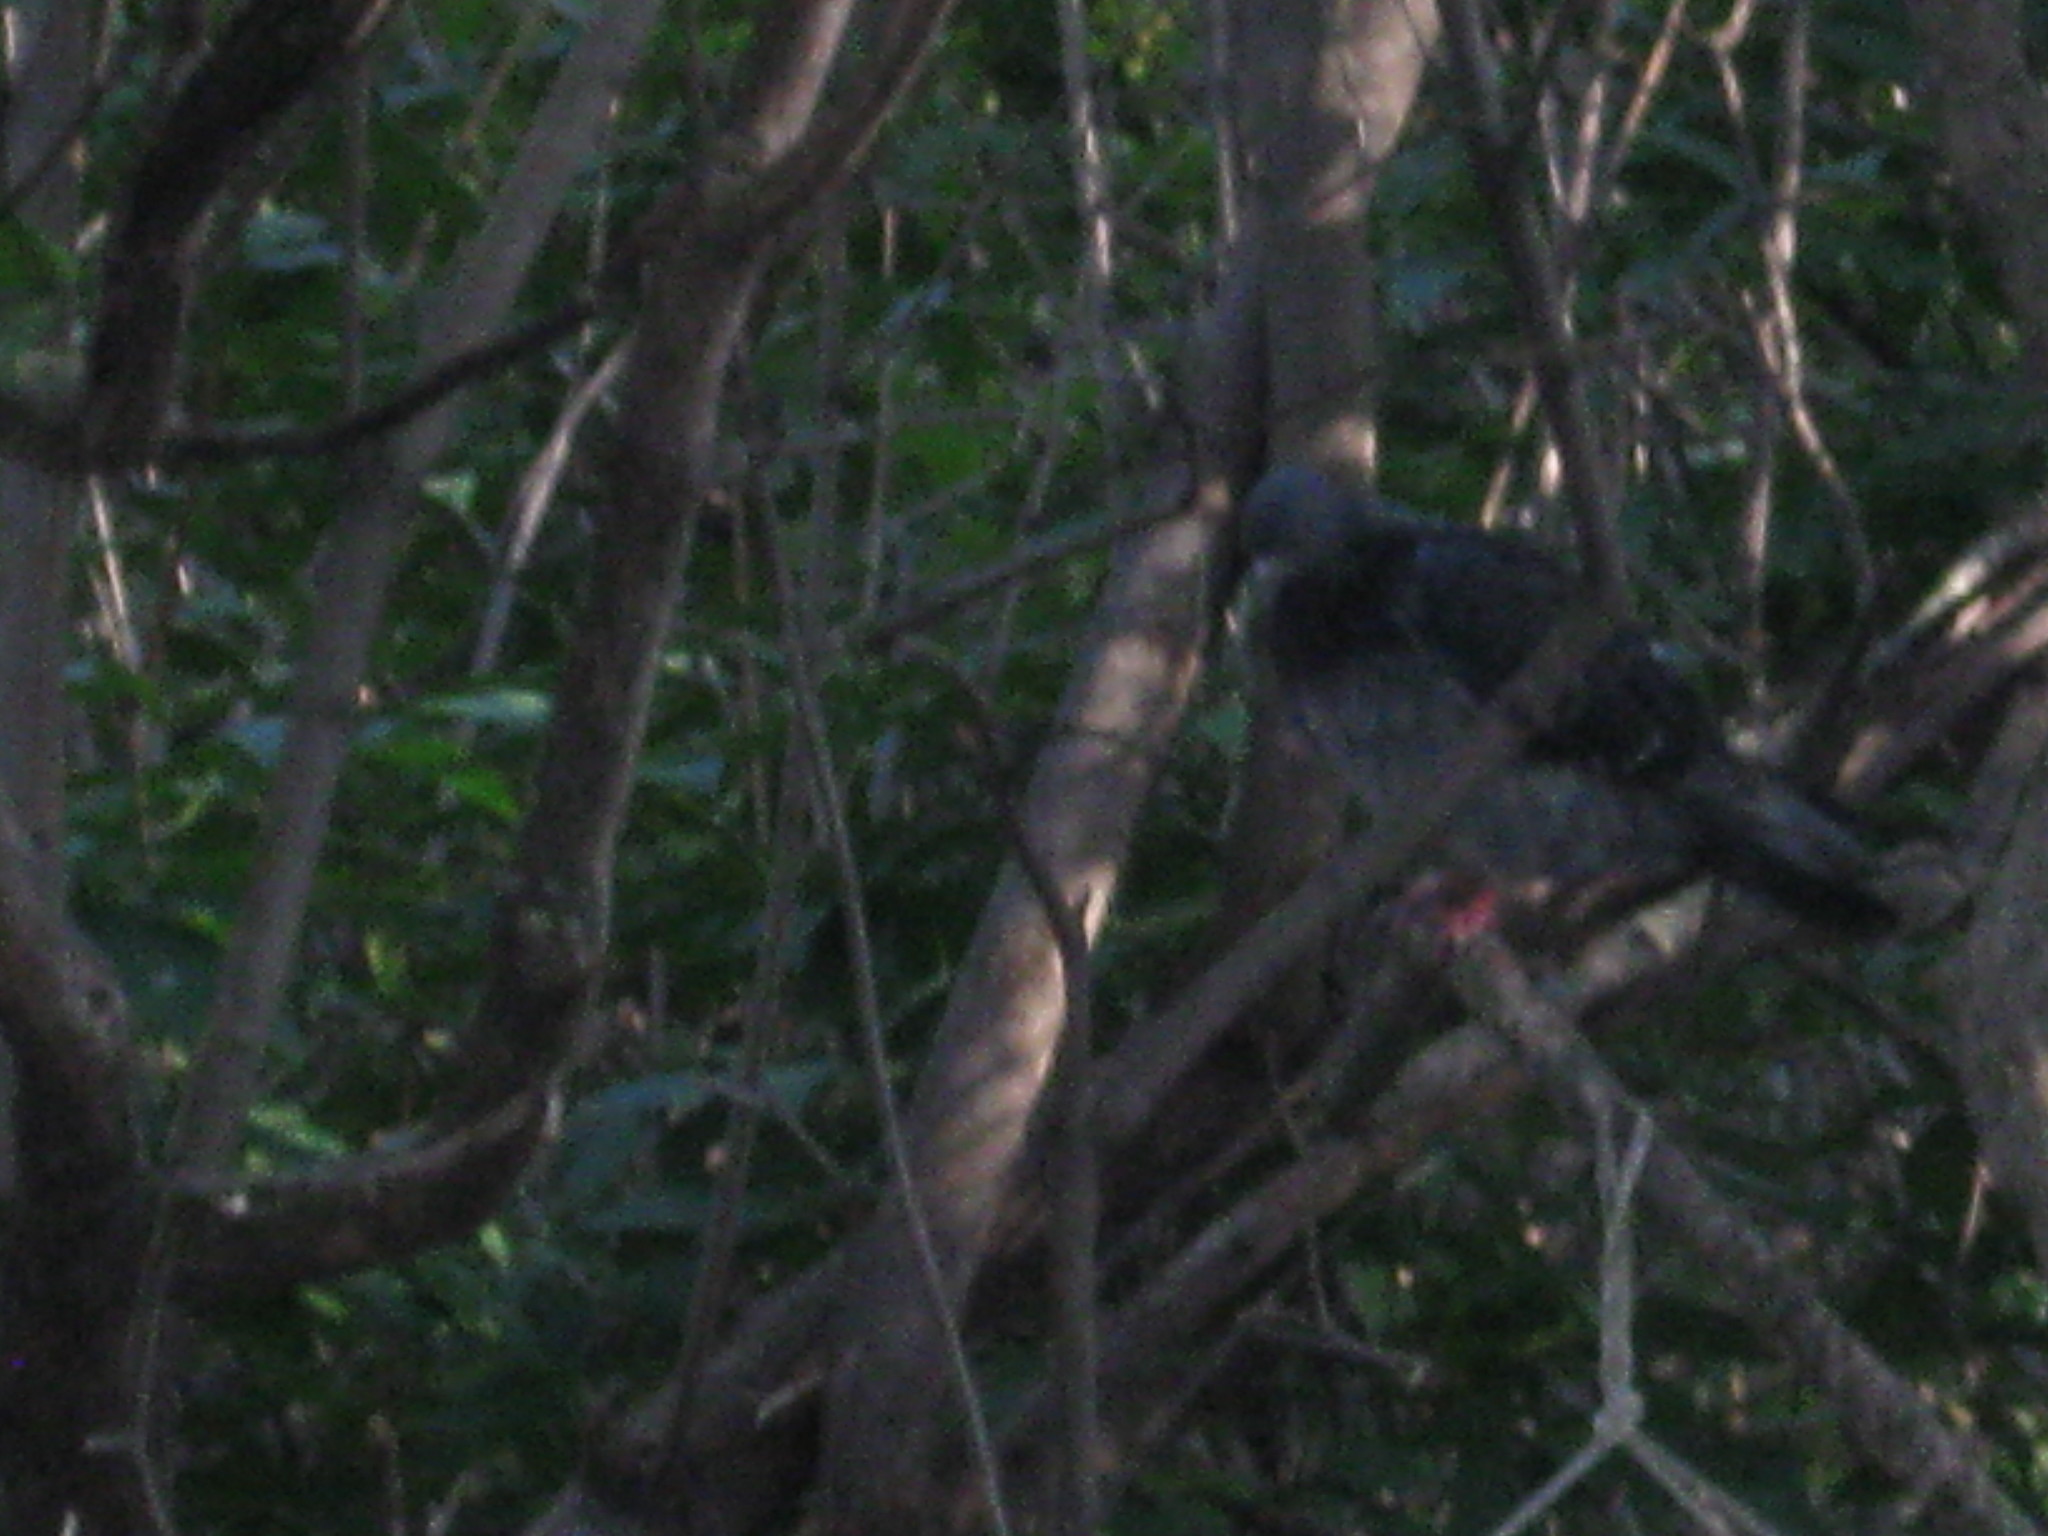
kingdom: Animalia
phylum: Chordata
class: Aves
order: Columbiformes
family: Columbidae
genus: Columba
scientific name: Columba livia
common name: Rock pigeon
